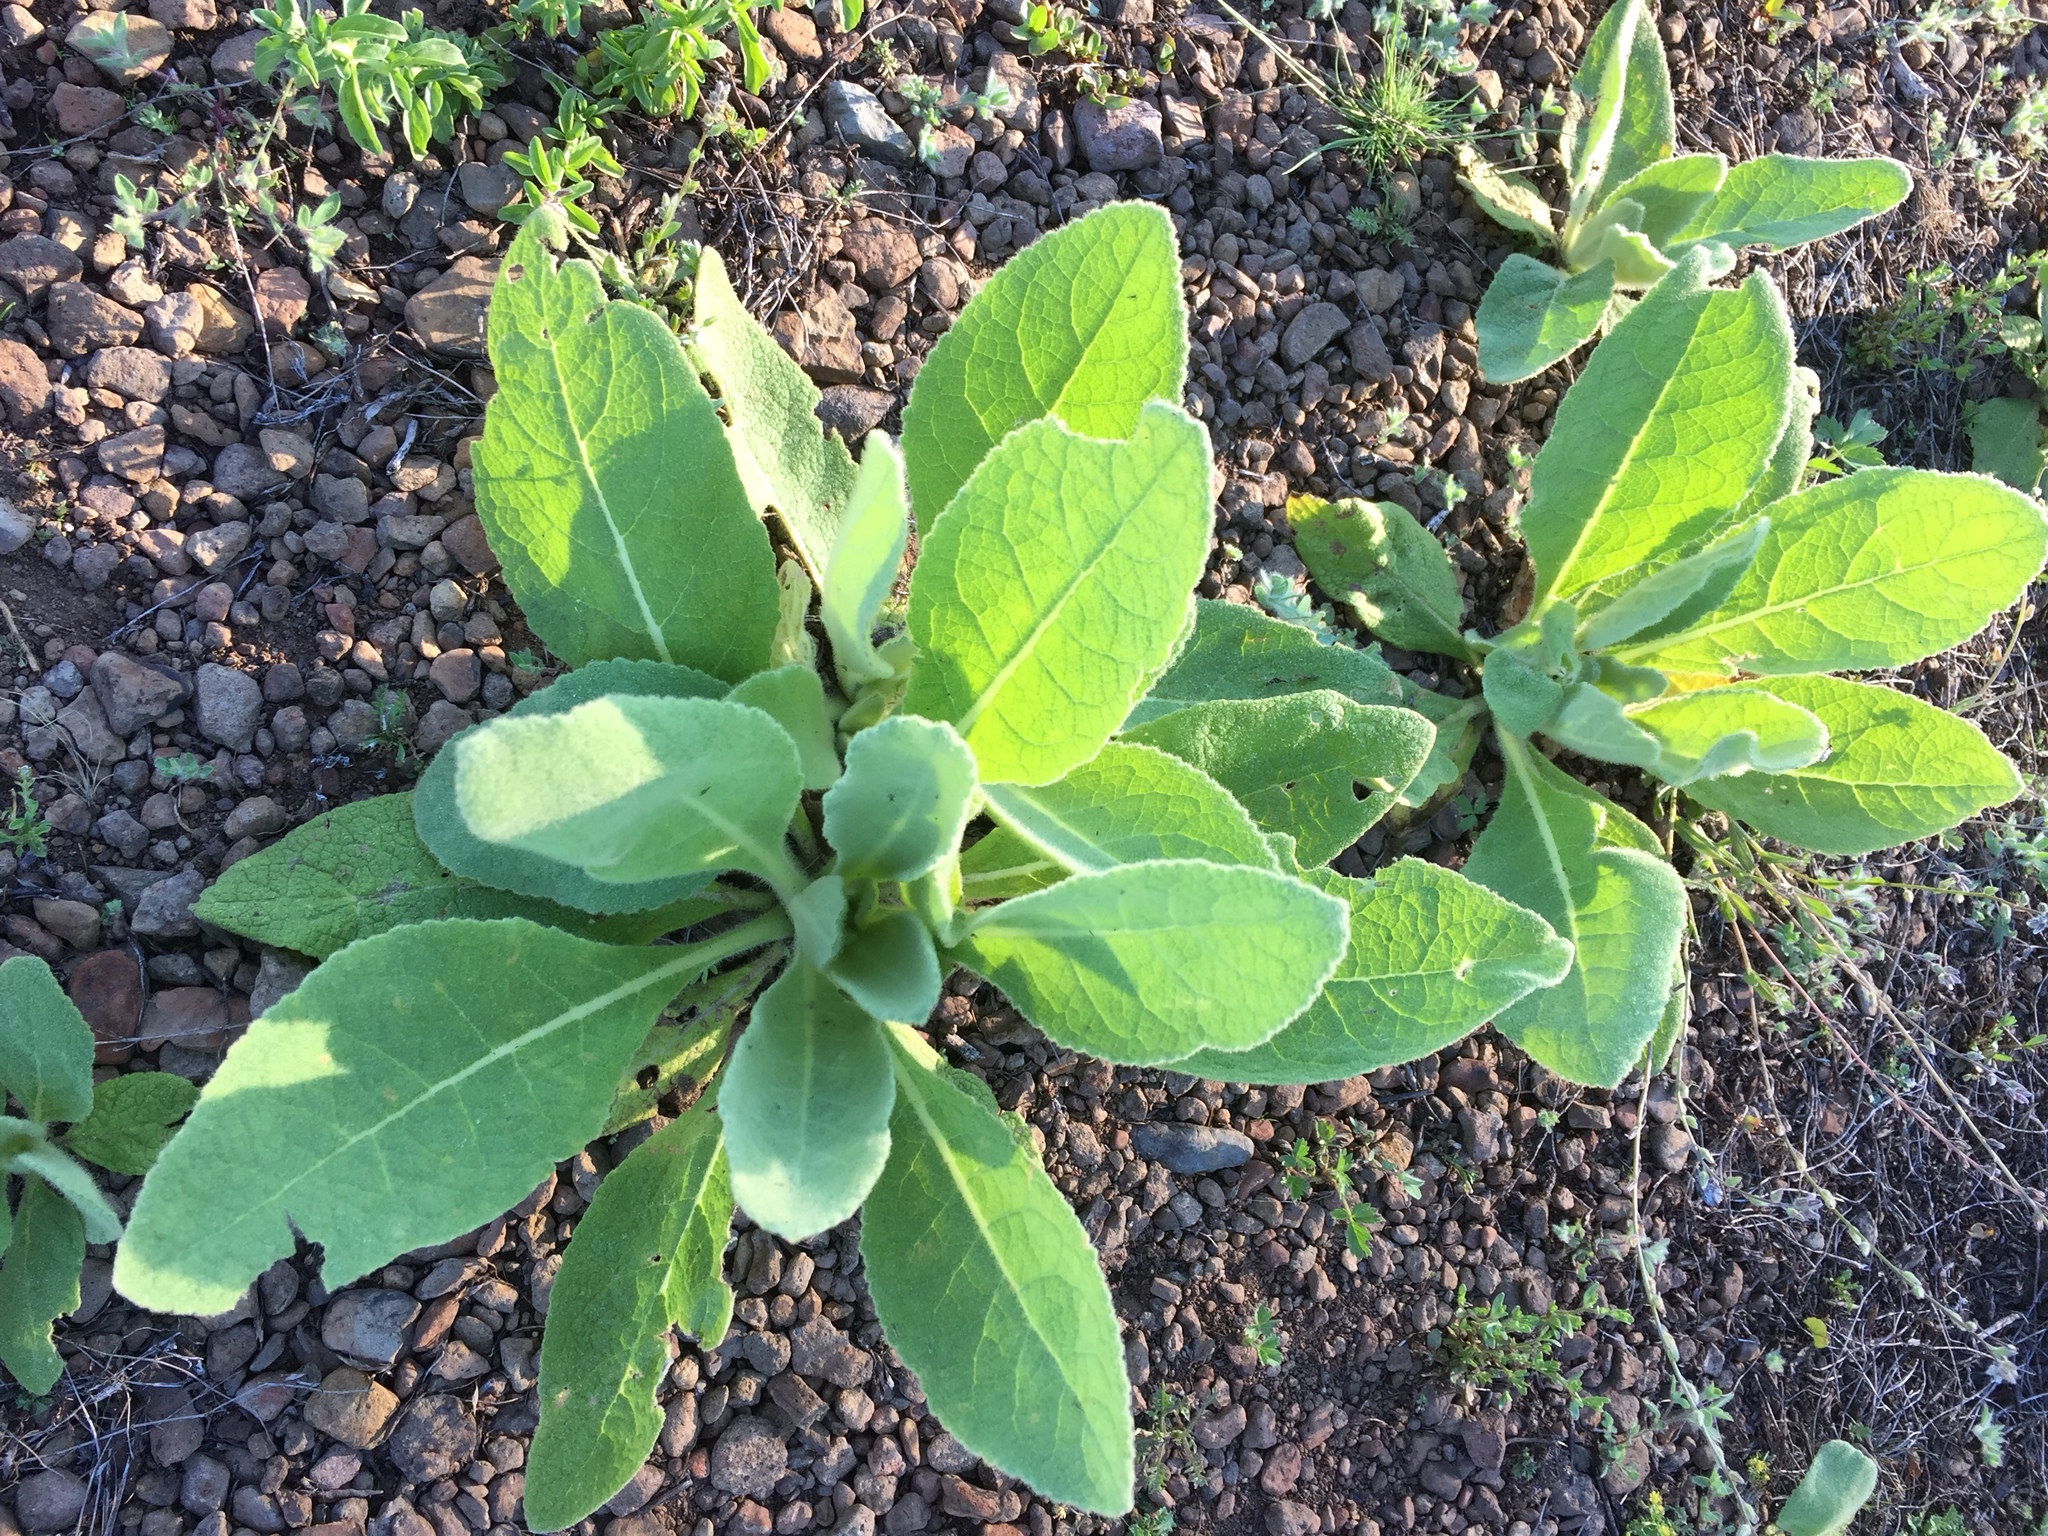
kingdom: Plantae
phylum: Tracheophyta
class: Magnoliopsida
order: Lamiales
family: Scrophulariaceae
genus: Verbascum
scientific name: Verbascum thapsus
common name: Common mullein
